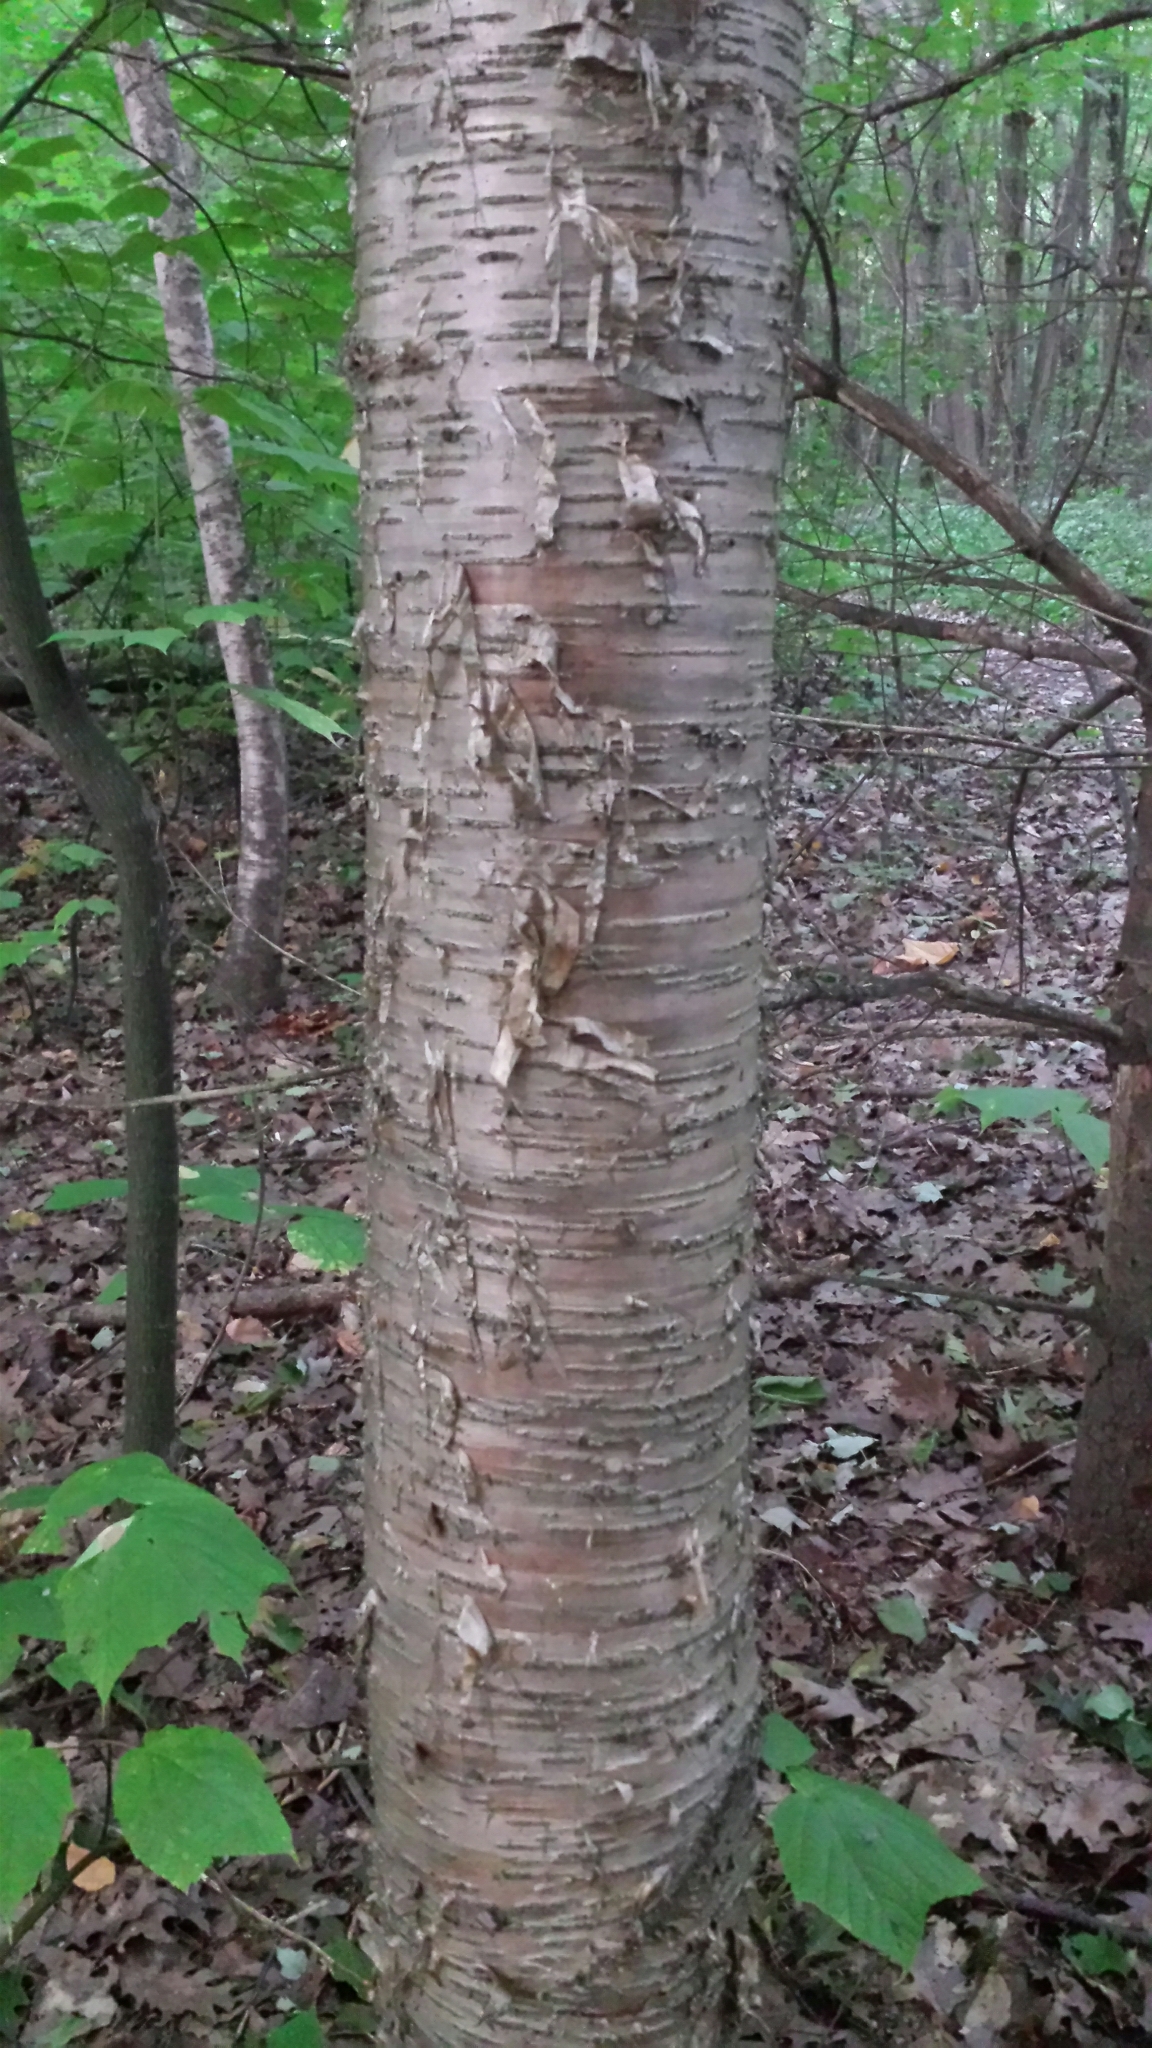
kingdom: Plantae
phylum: Tracheophyta
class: Magnoliopsida
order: Fagales
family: Betulaceae
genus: Betula
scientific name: Betula alleghaniensis
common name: Yellow birch
